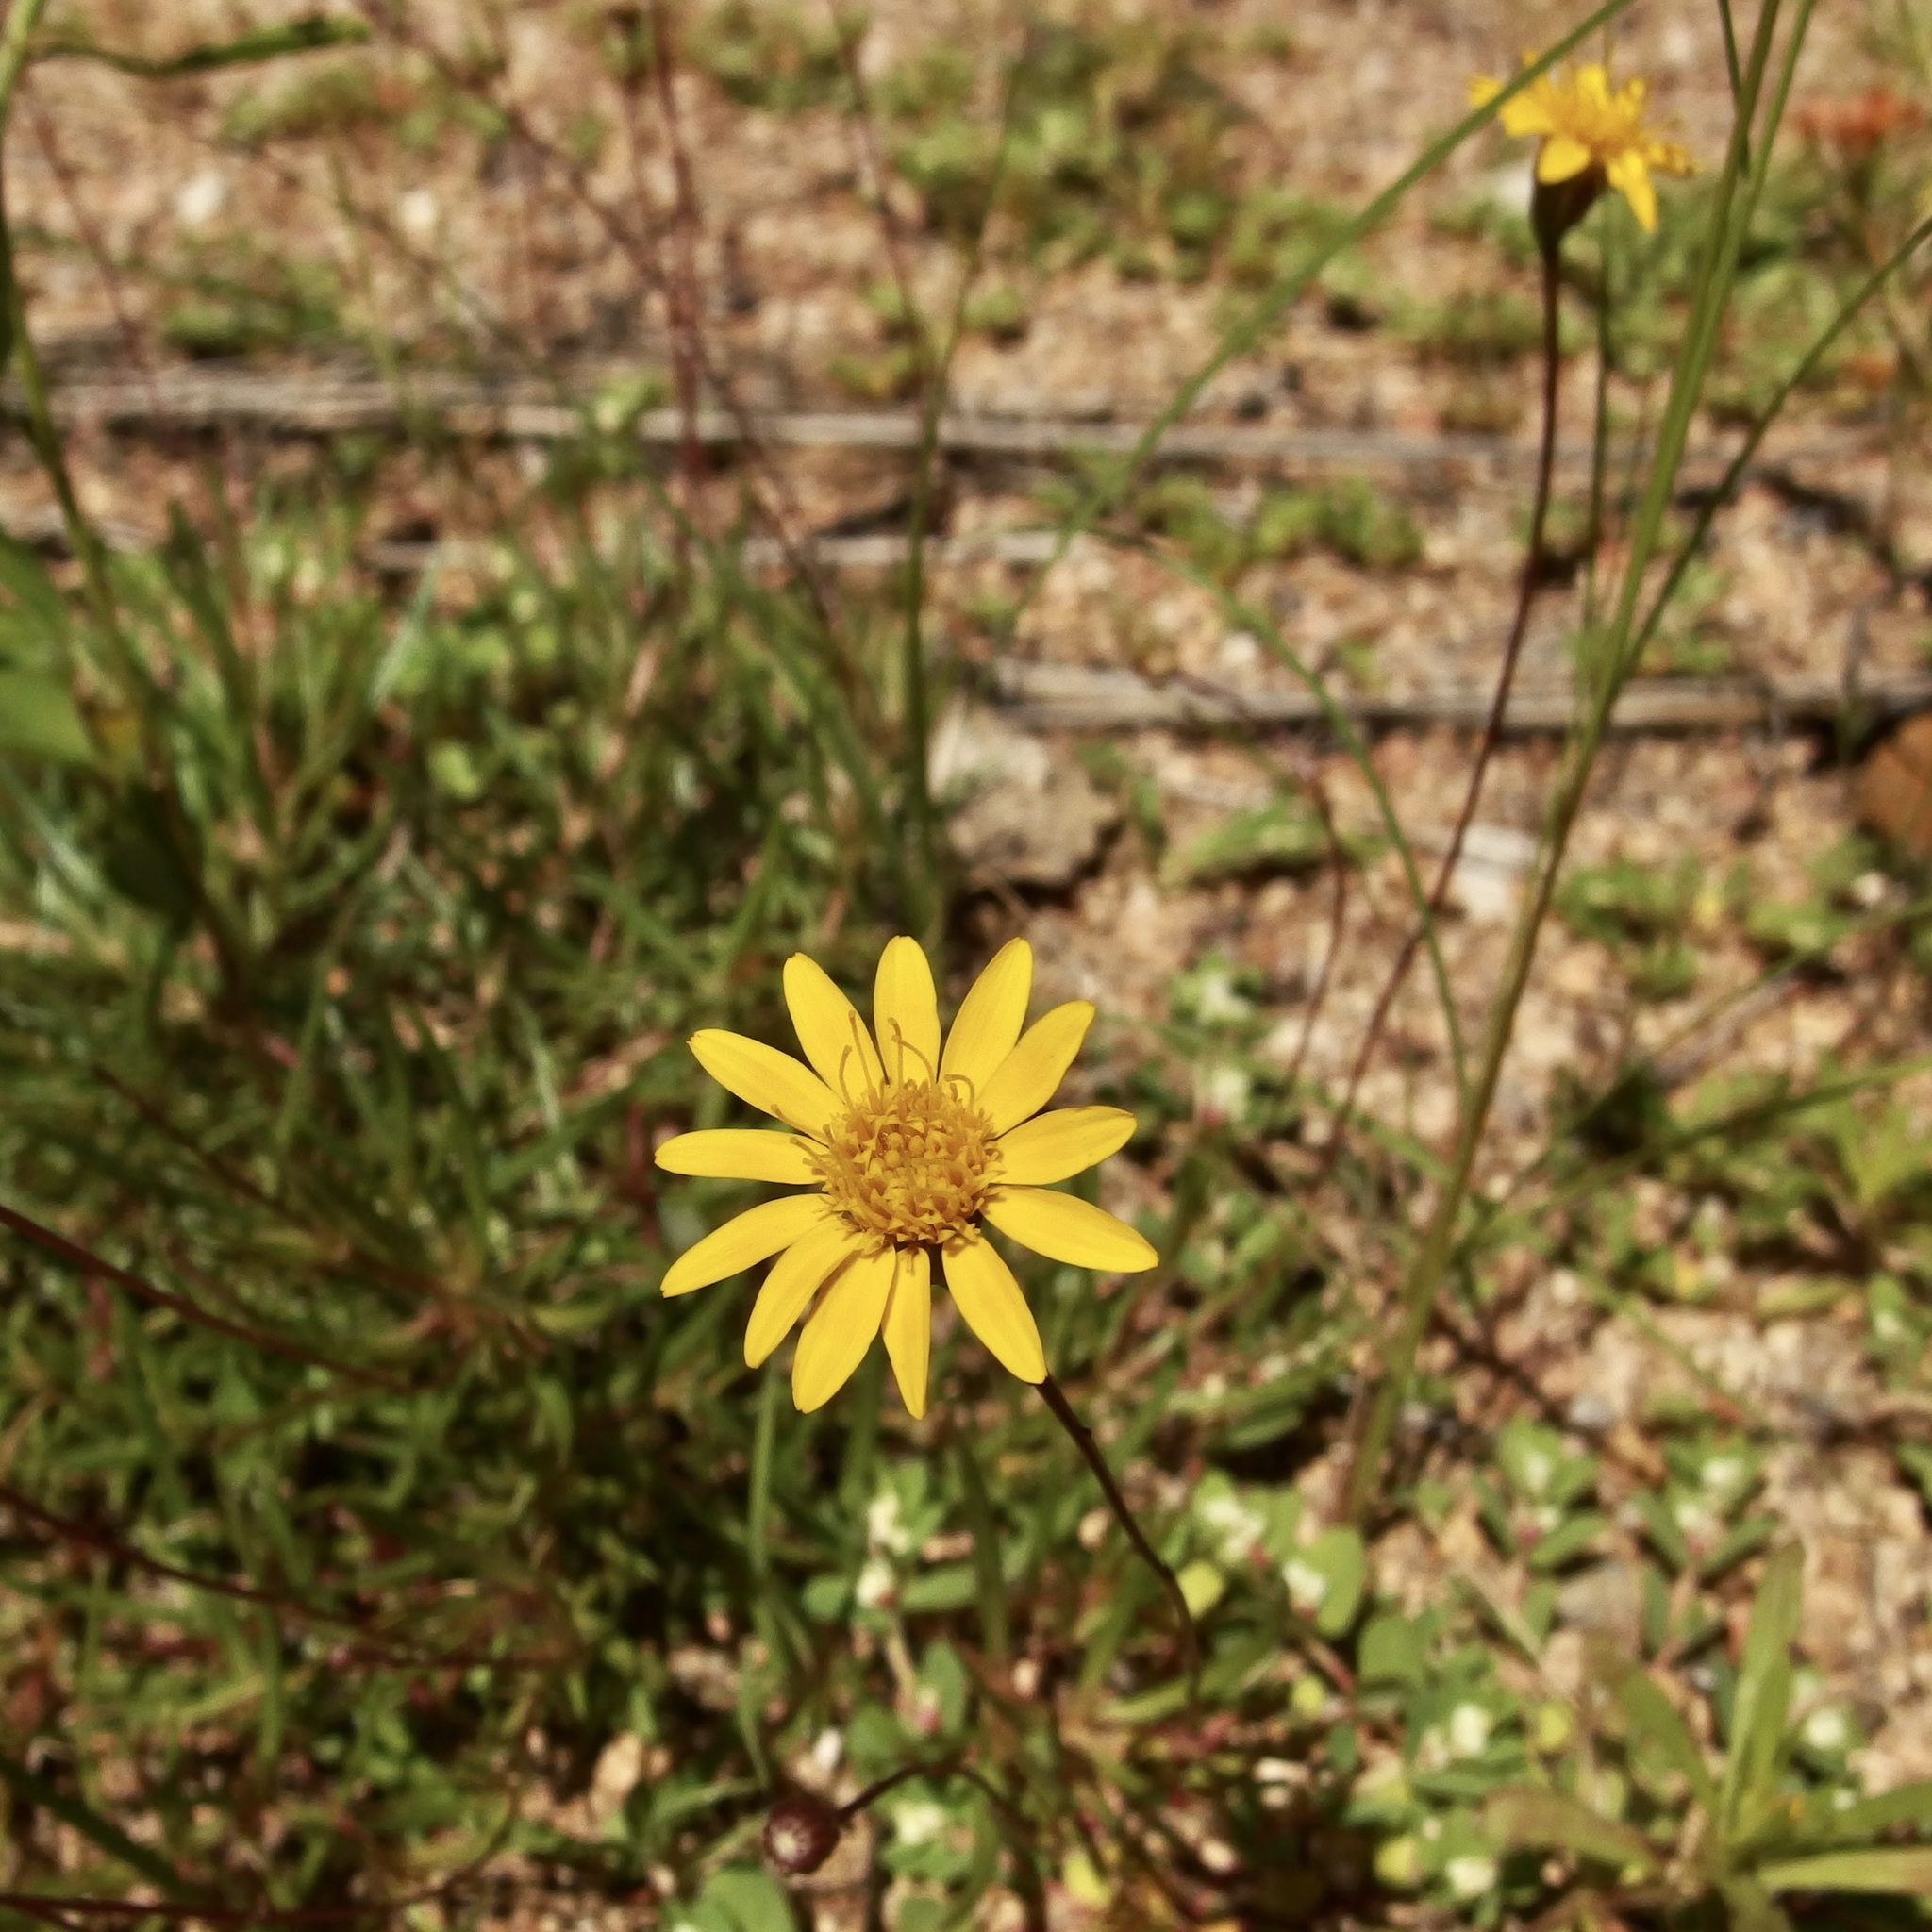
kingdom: Plantae
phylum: Tracheophyta
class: Magnoliopsida
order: Asterales
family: Asteraceae
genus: Pectis
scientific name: Pectis longipes
